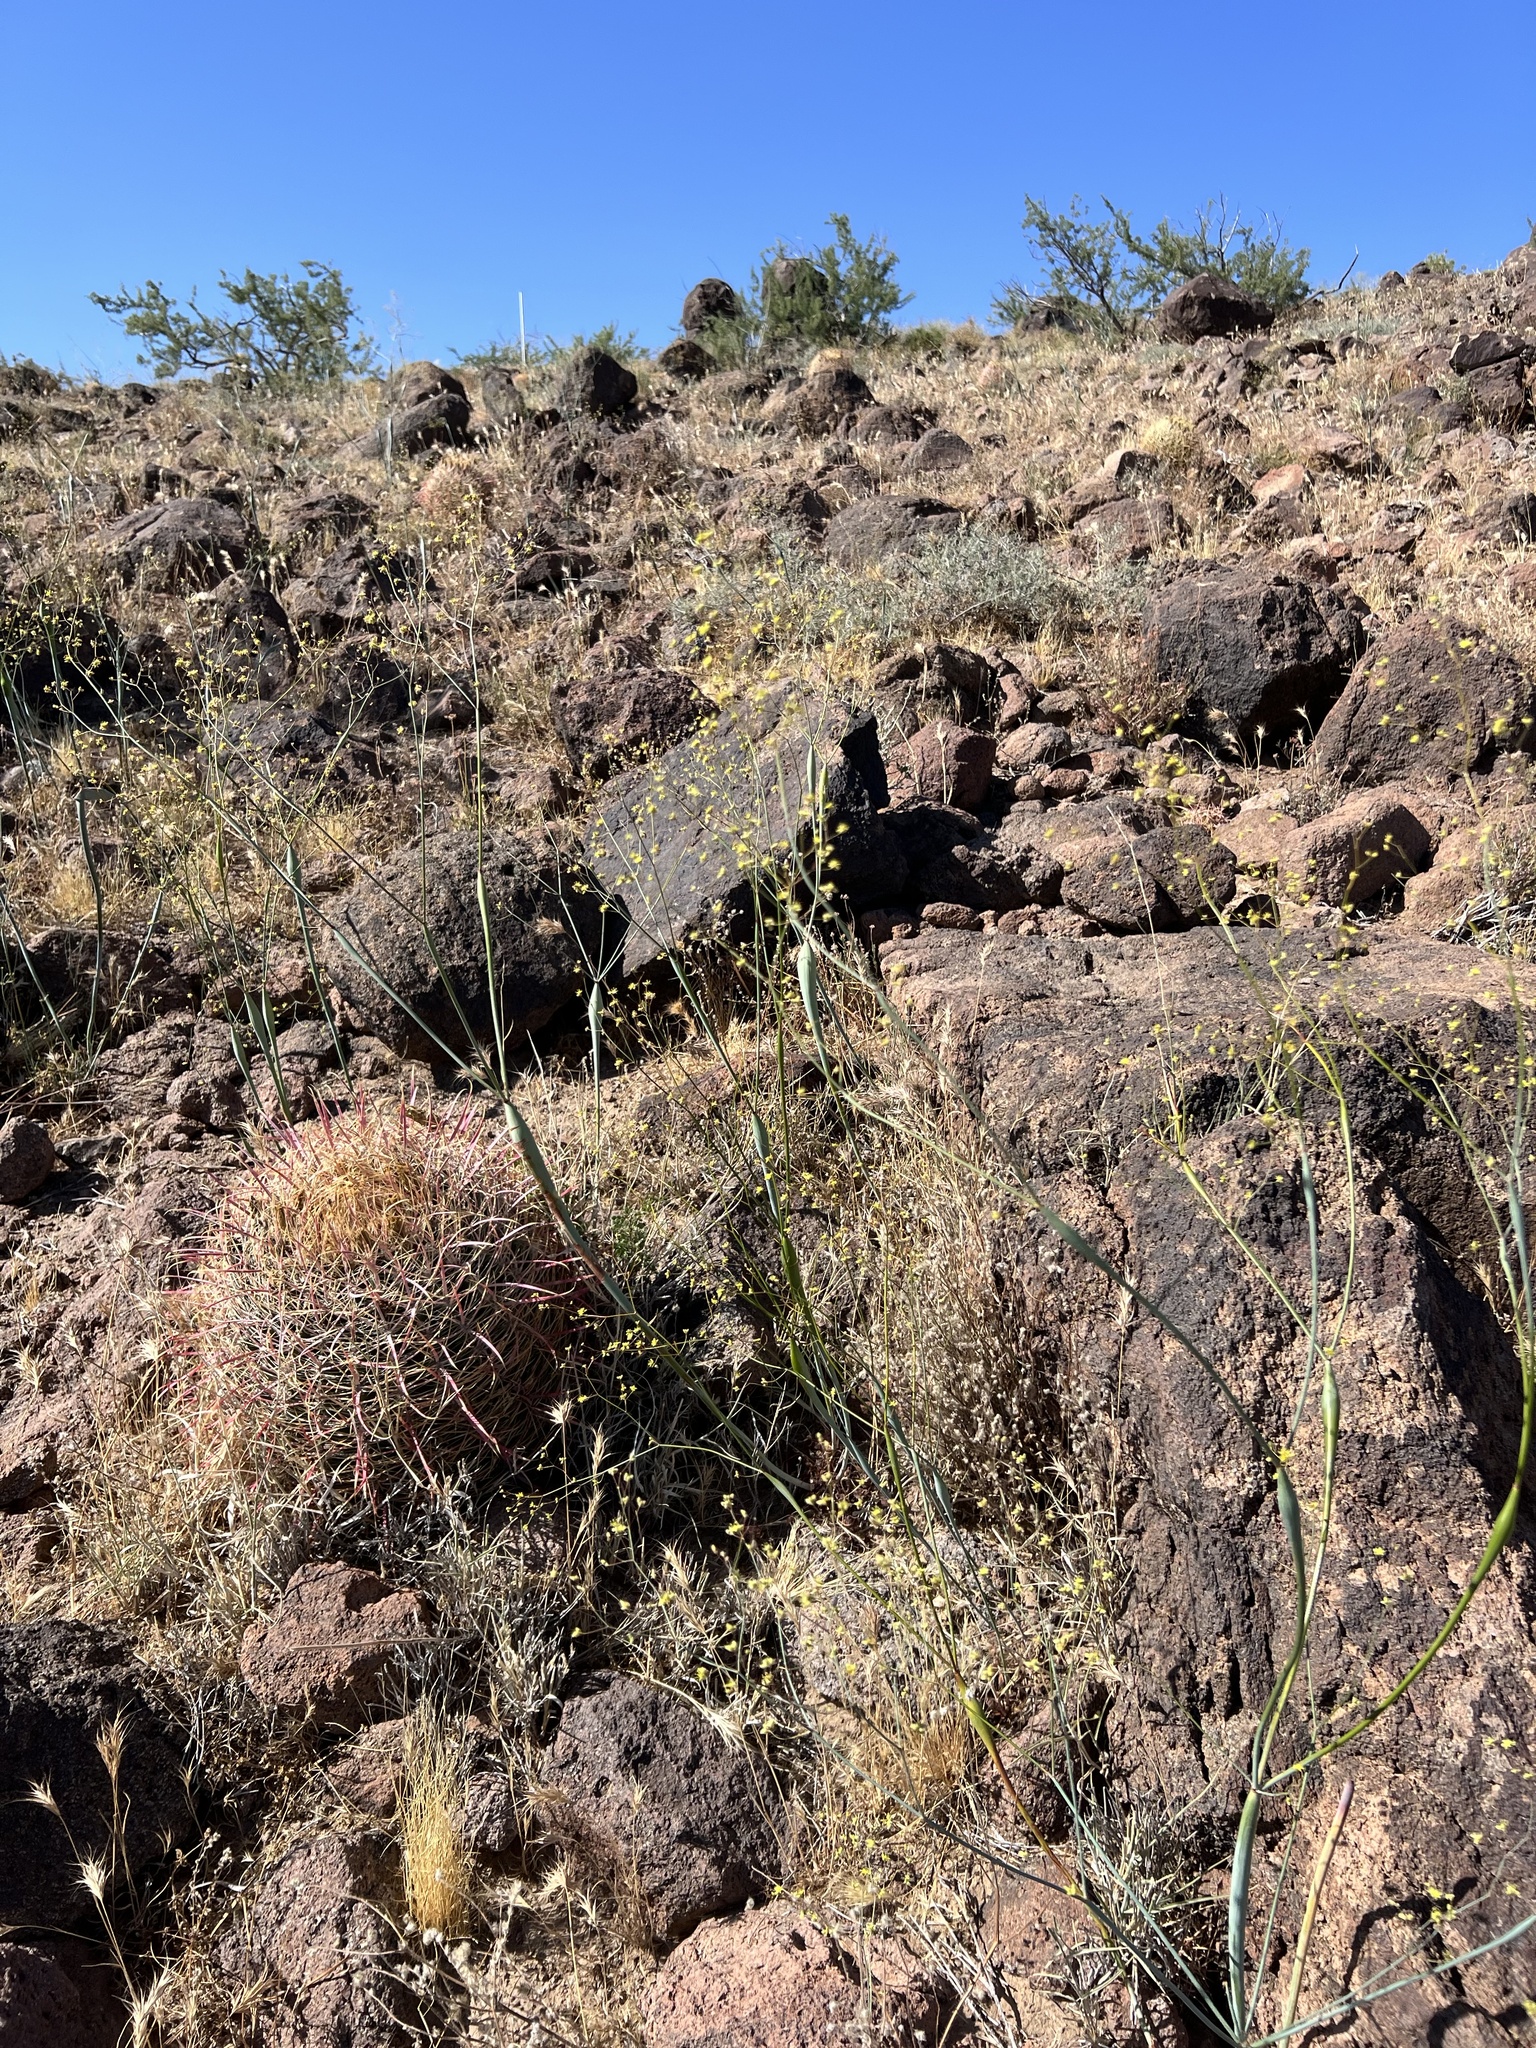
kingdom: Plantae
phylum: Tracheophyta
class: Magnoliopsida
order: Caryophyllales
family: Polygonaceae
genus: Eriogonum
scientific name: Eriogonum inflatum
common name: Desert trumpet
